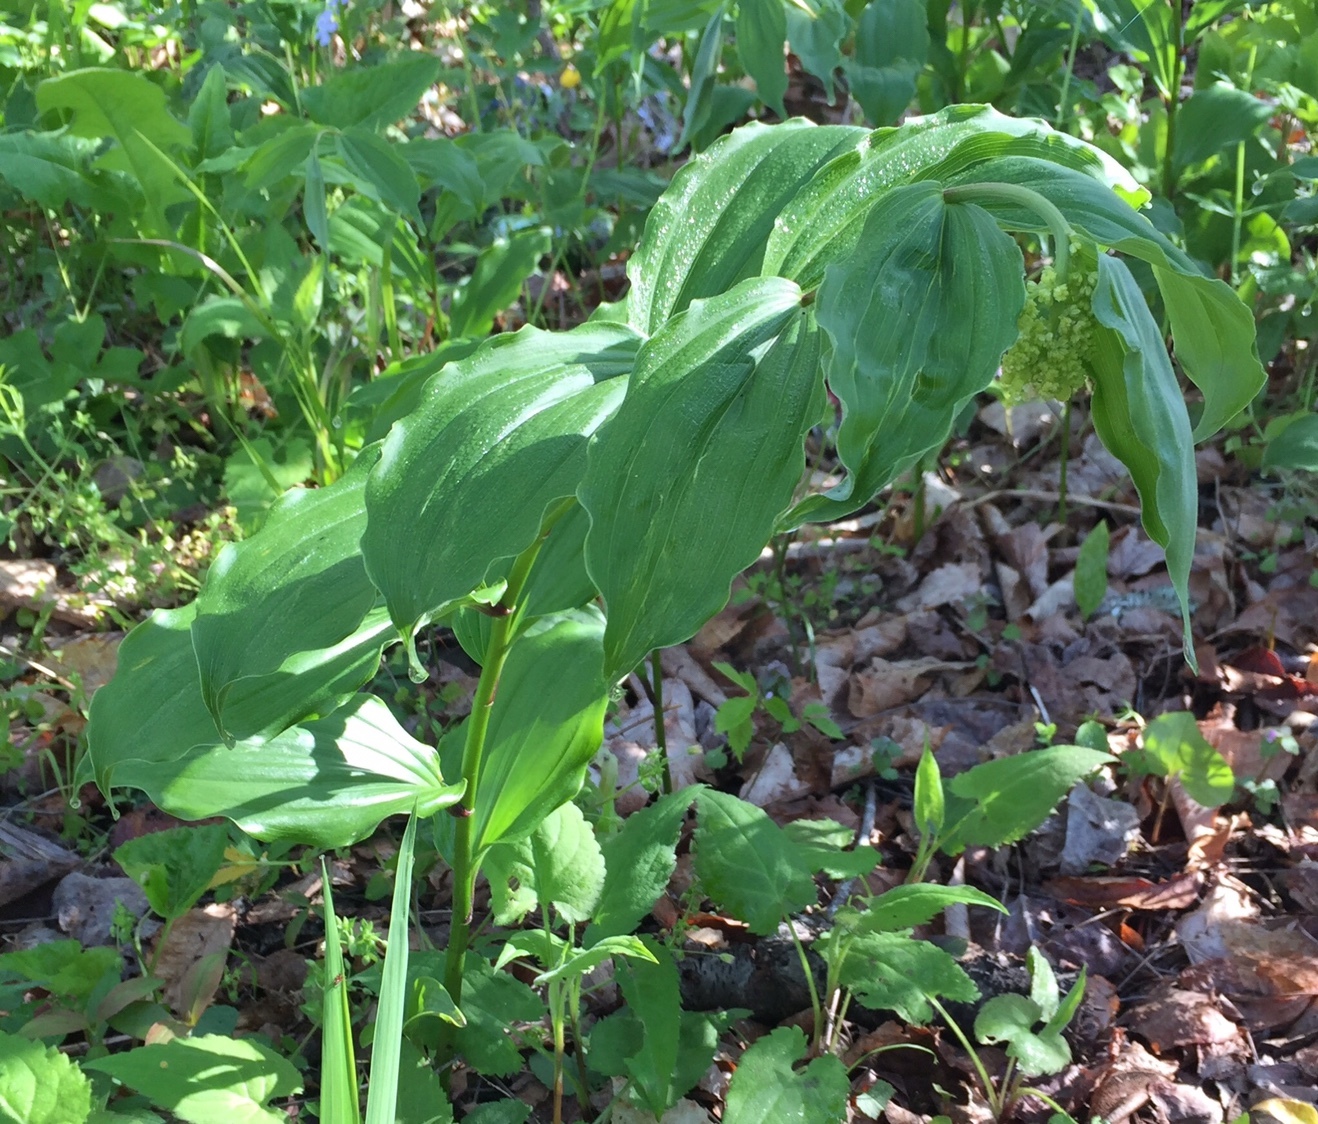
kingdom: Plantae
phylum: Tracheophyta
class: Liliopsida
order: Asparagales
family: Asparagaceae
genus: Maianthemum
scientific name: Maianthemum racemosum
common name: False spikenard
